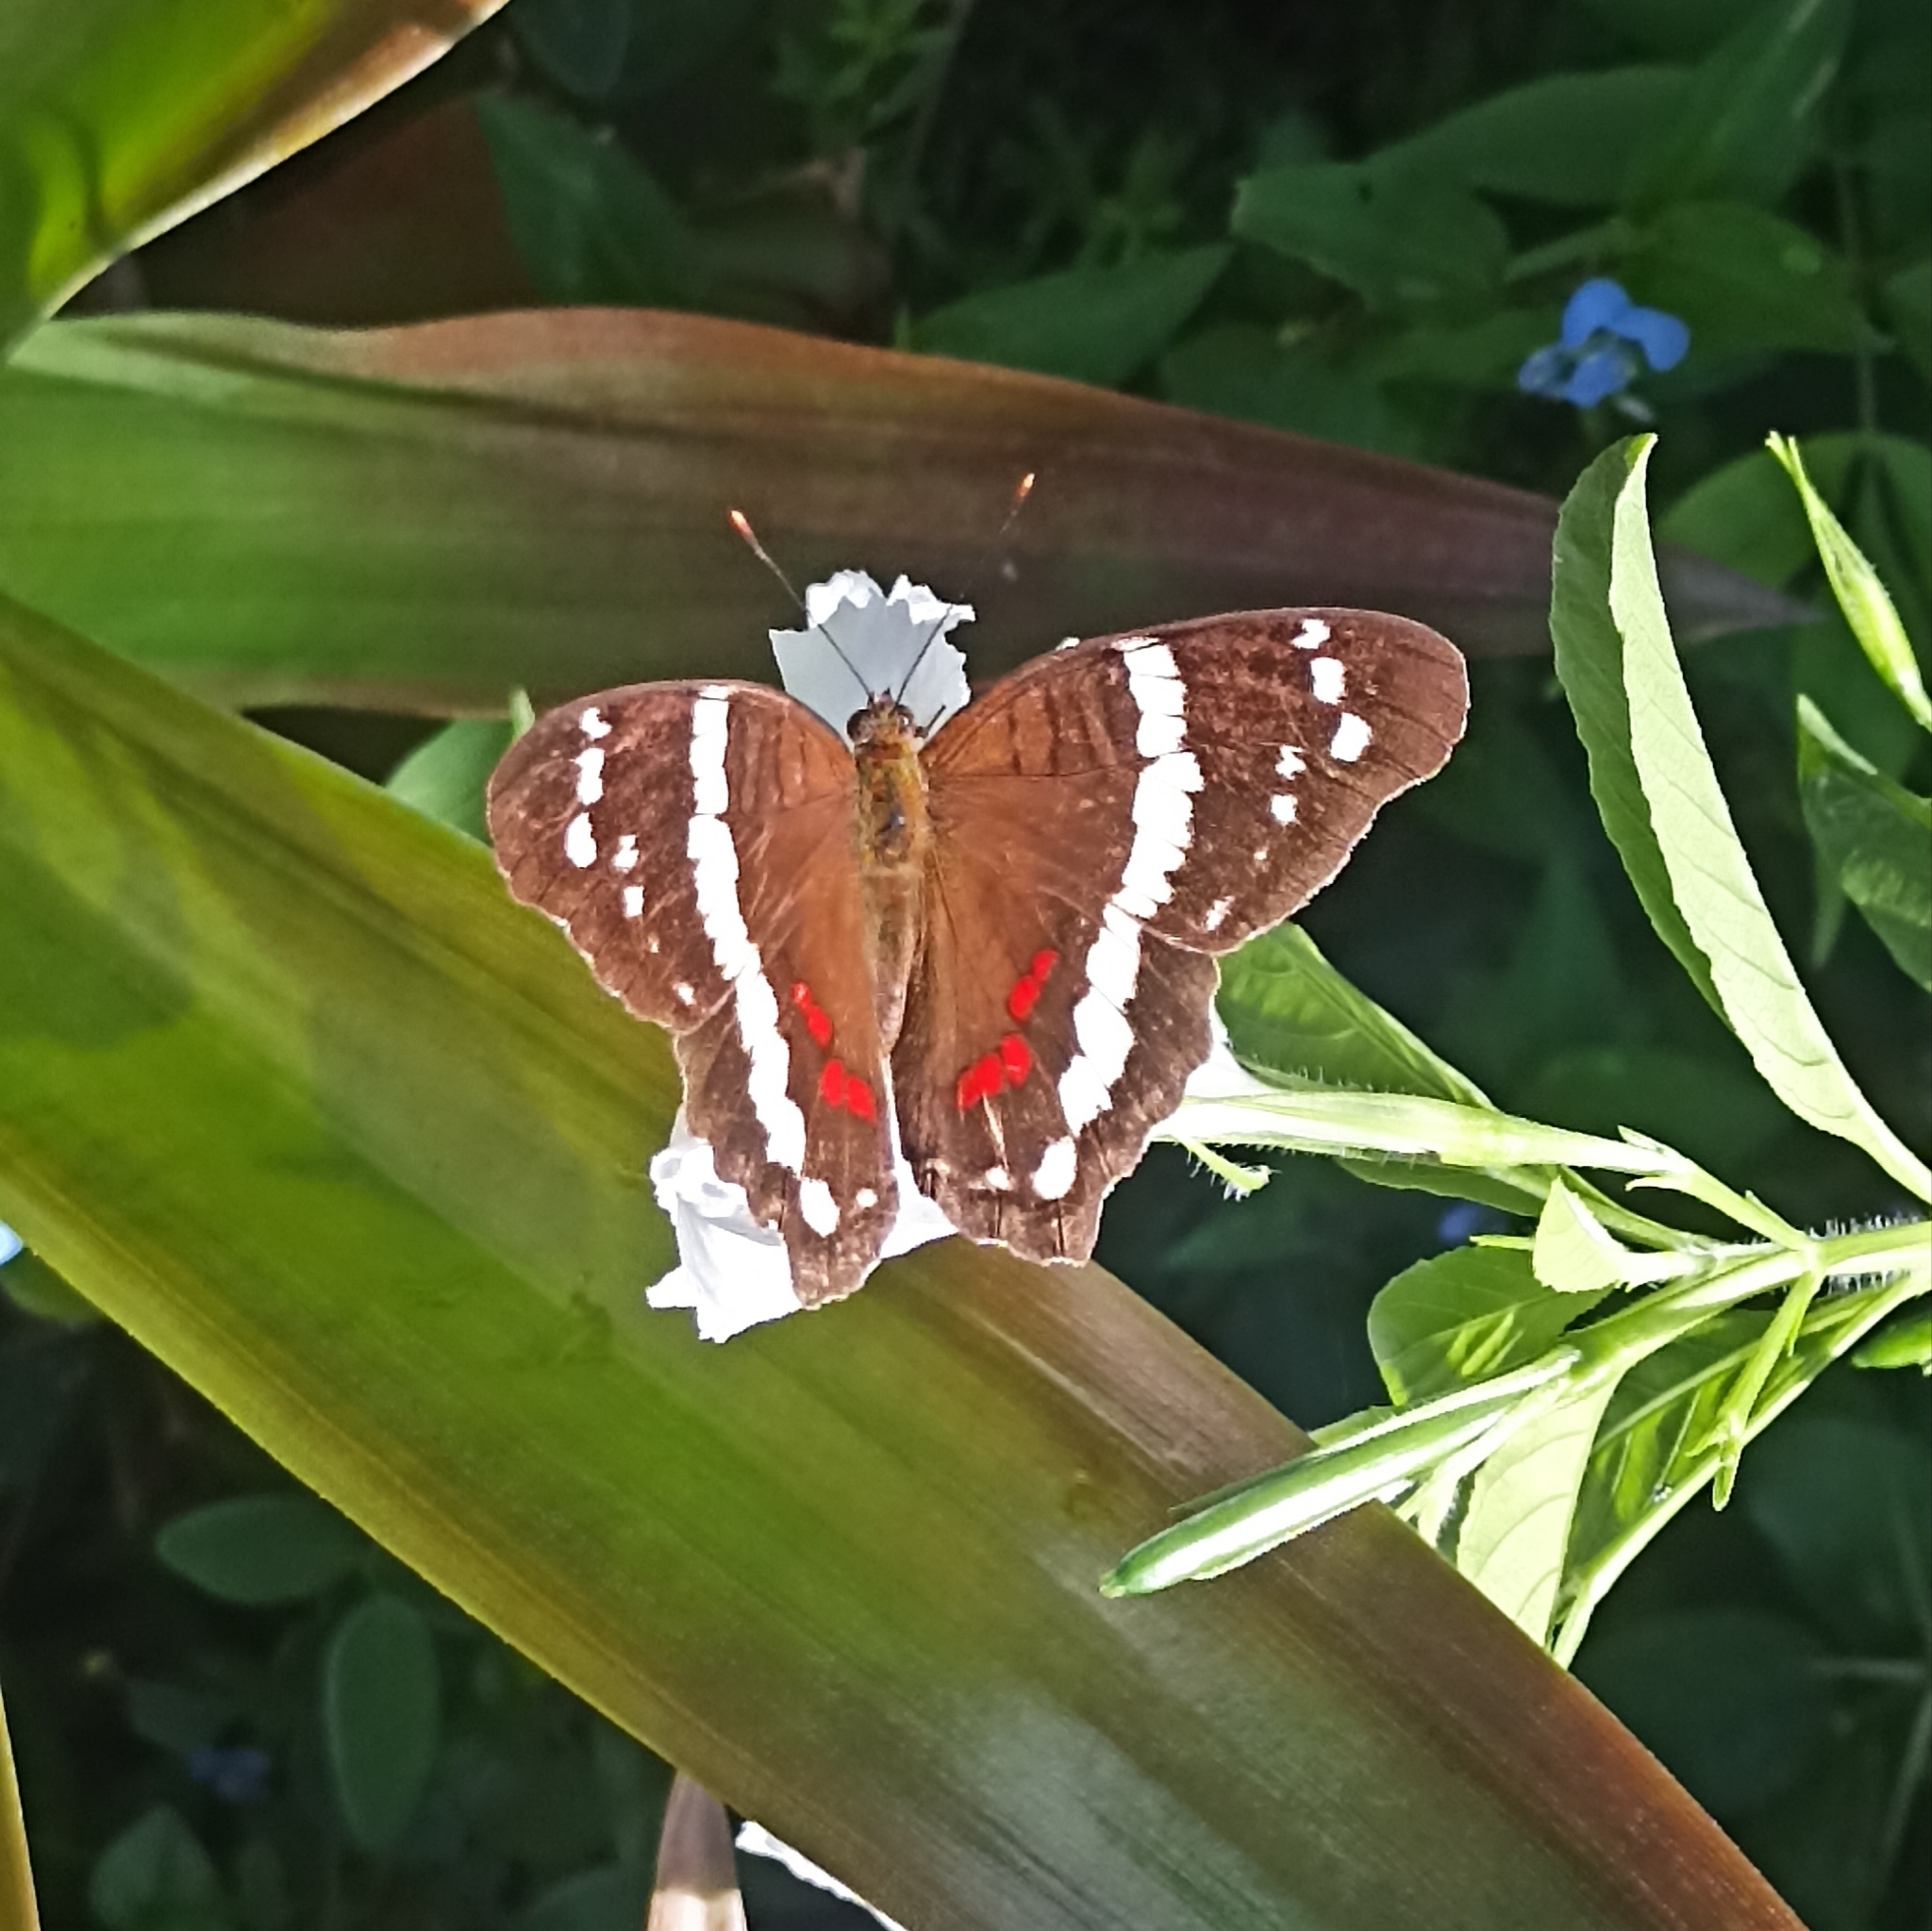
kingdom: Animalia
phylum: Arthropoda
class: Insecta
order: Lepidoptera
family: Nymphalidae
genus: Anartia
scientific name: Anartia fatima
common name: Banded peacock
